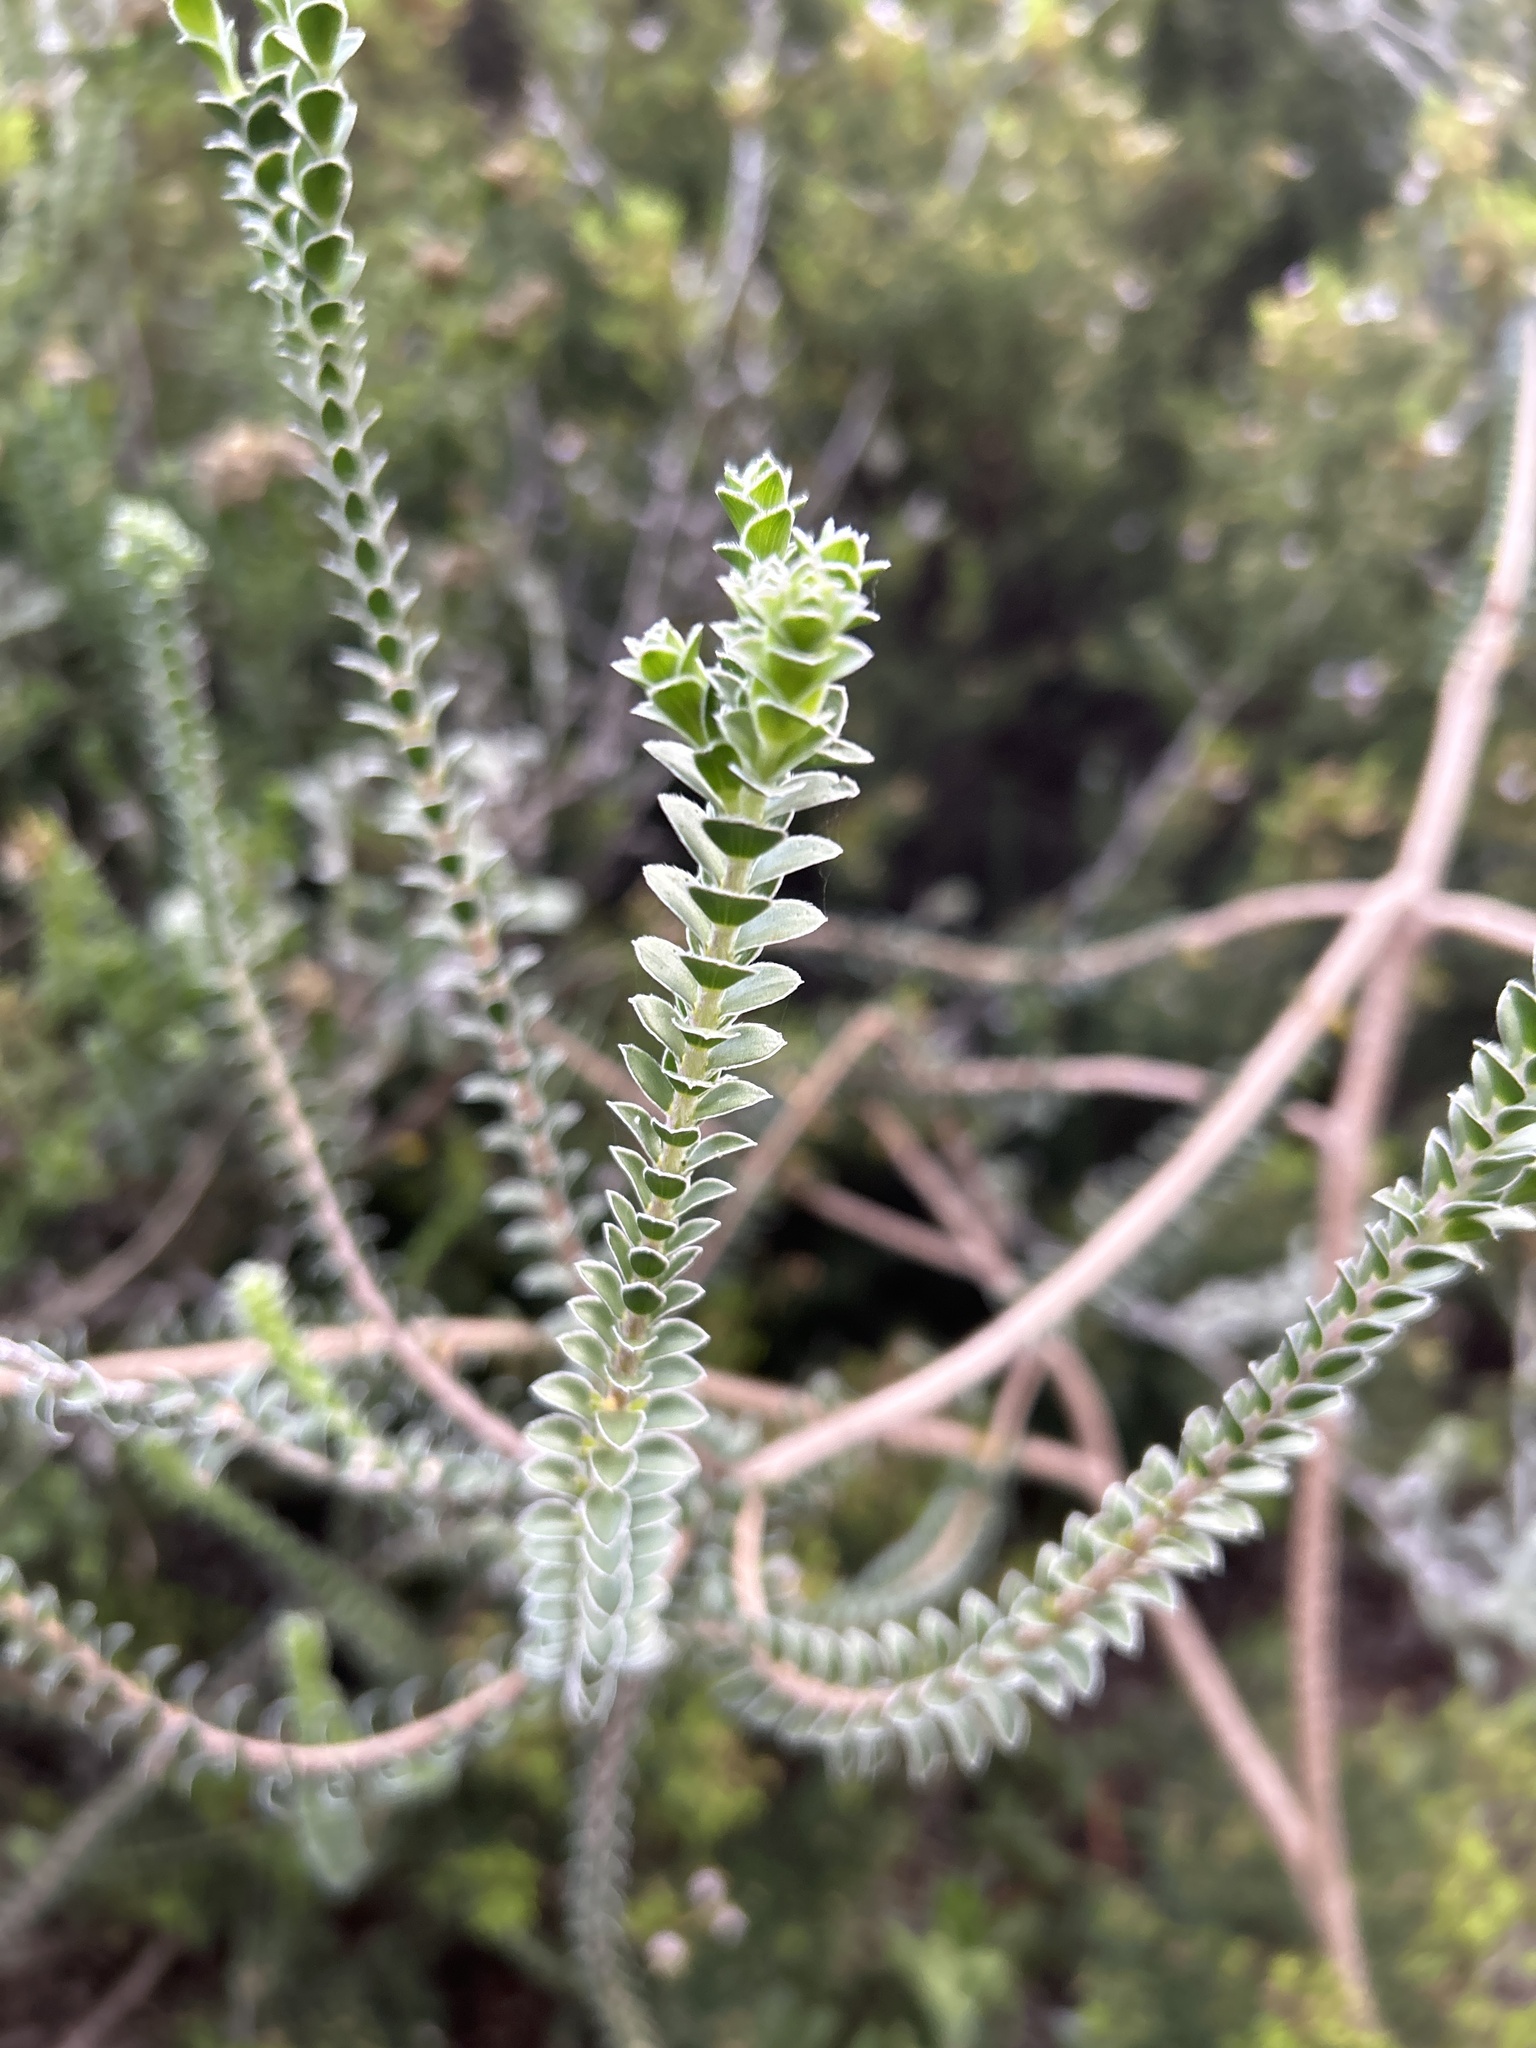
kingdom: Plantae
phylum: Tracheophyta
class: Magnoliopsida
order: Malvales
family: Thymelaeaceae
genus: Struthiola
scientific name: Struthiola argentea
